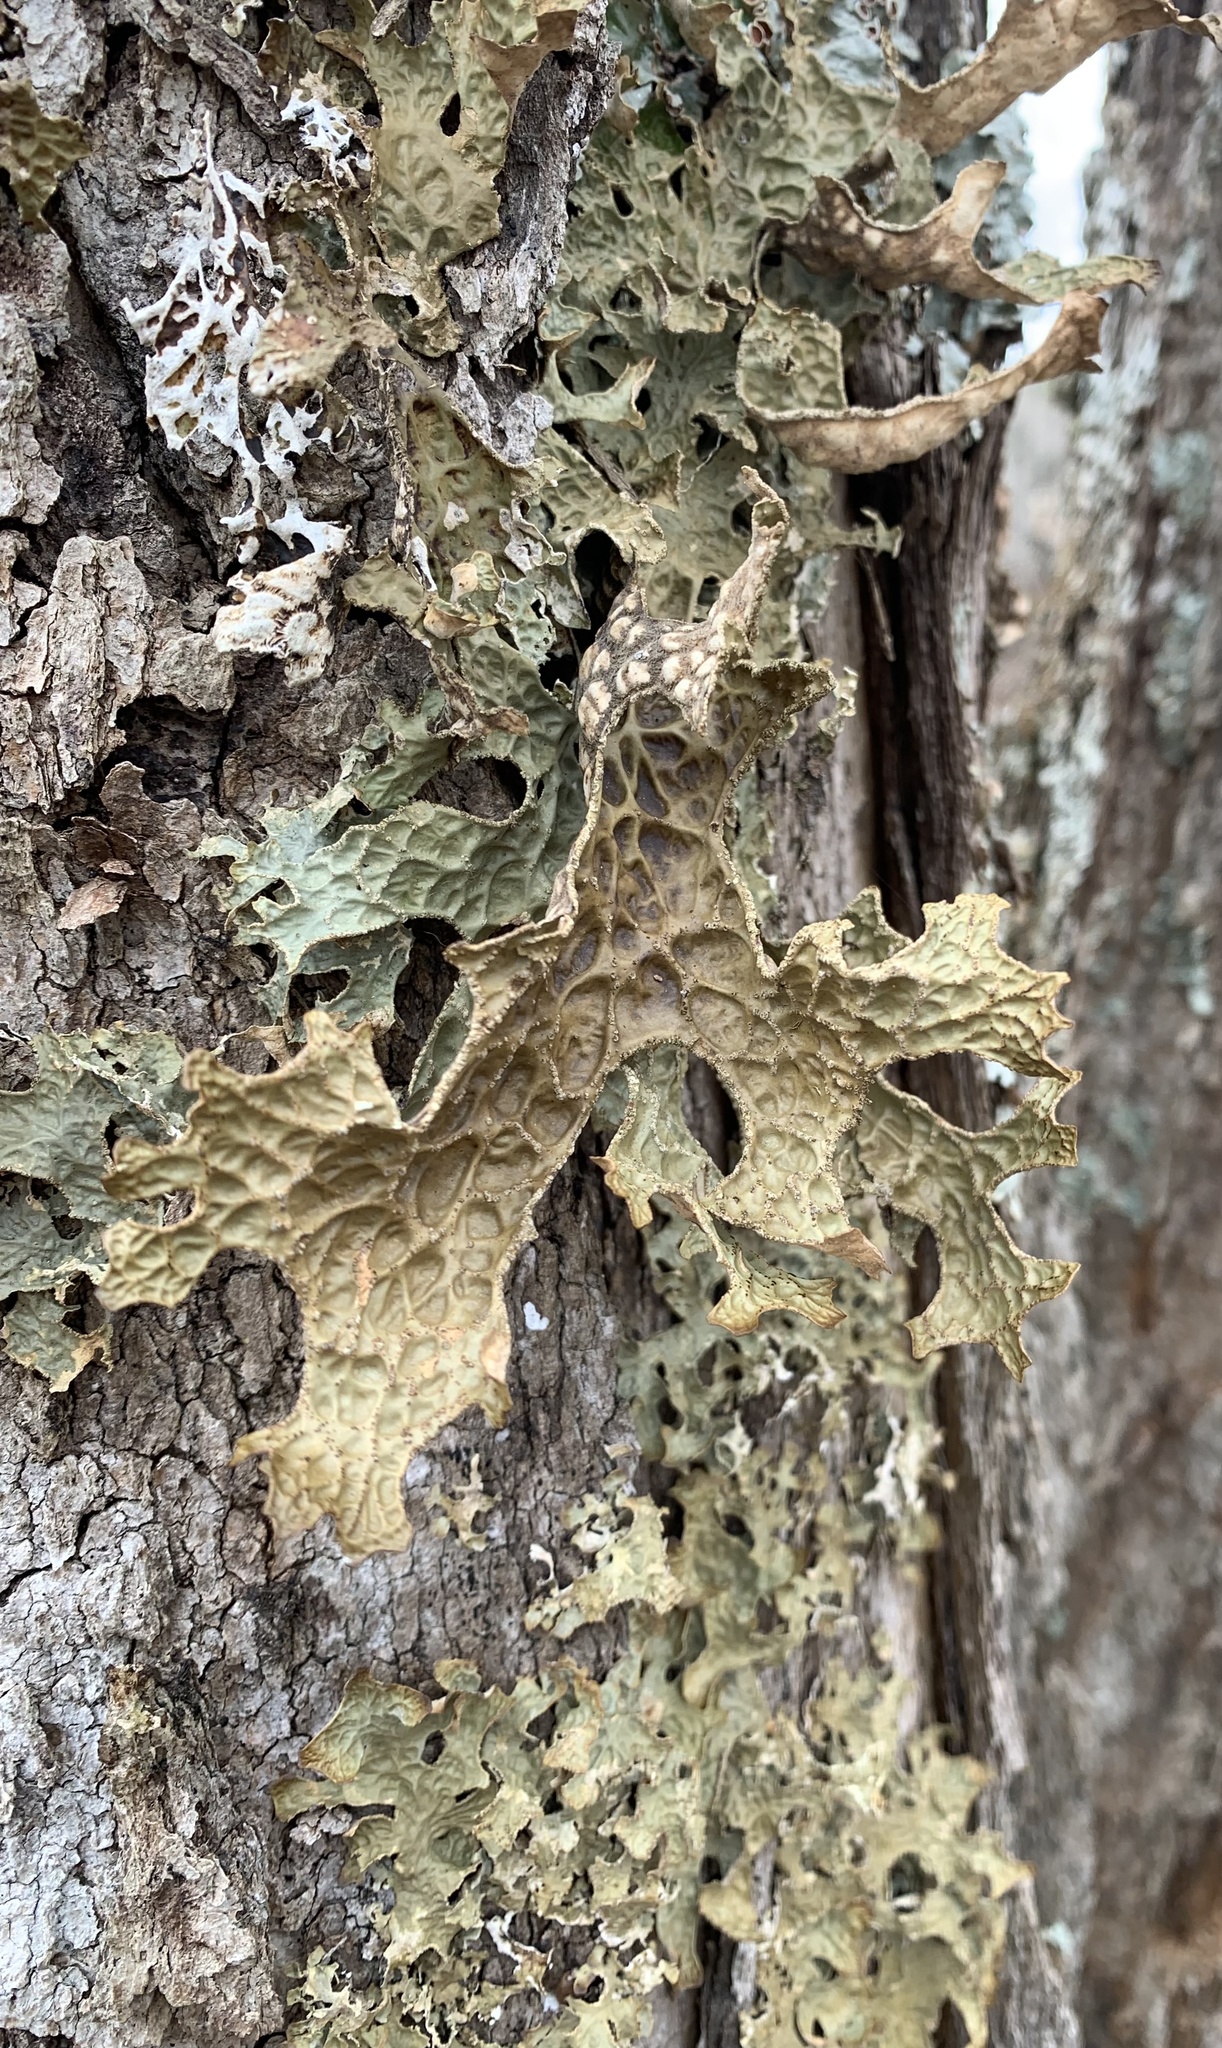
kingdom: Fungi
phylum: Ascomycota
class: Lecanoromycetes
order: Peltigerales
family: Lobariaceae
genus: Lobaria
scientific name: Lobaria pulmonaria
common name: Lungwort
